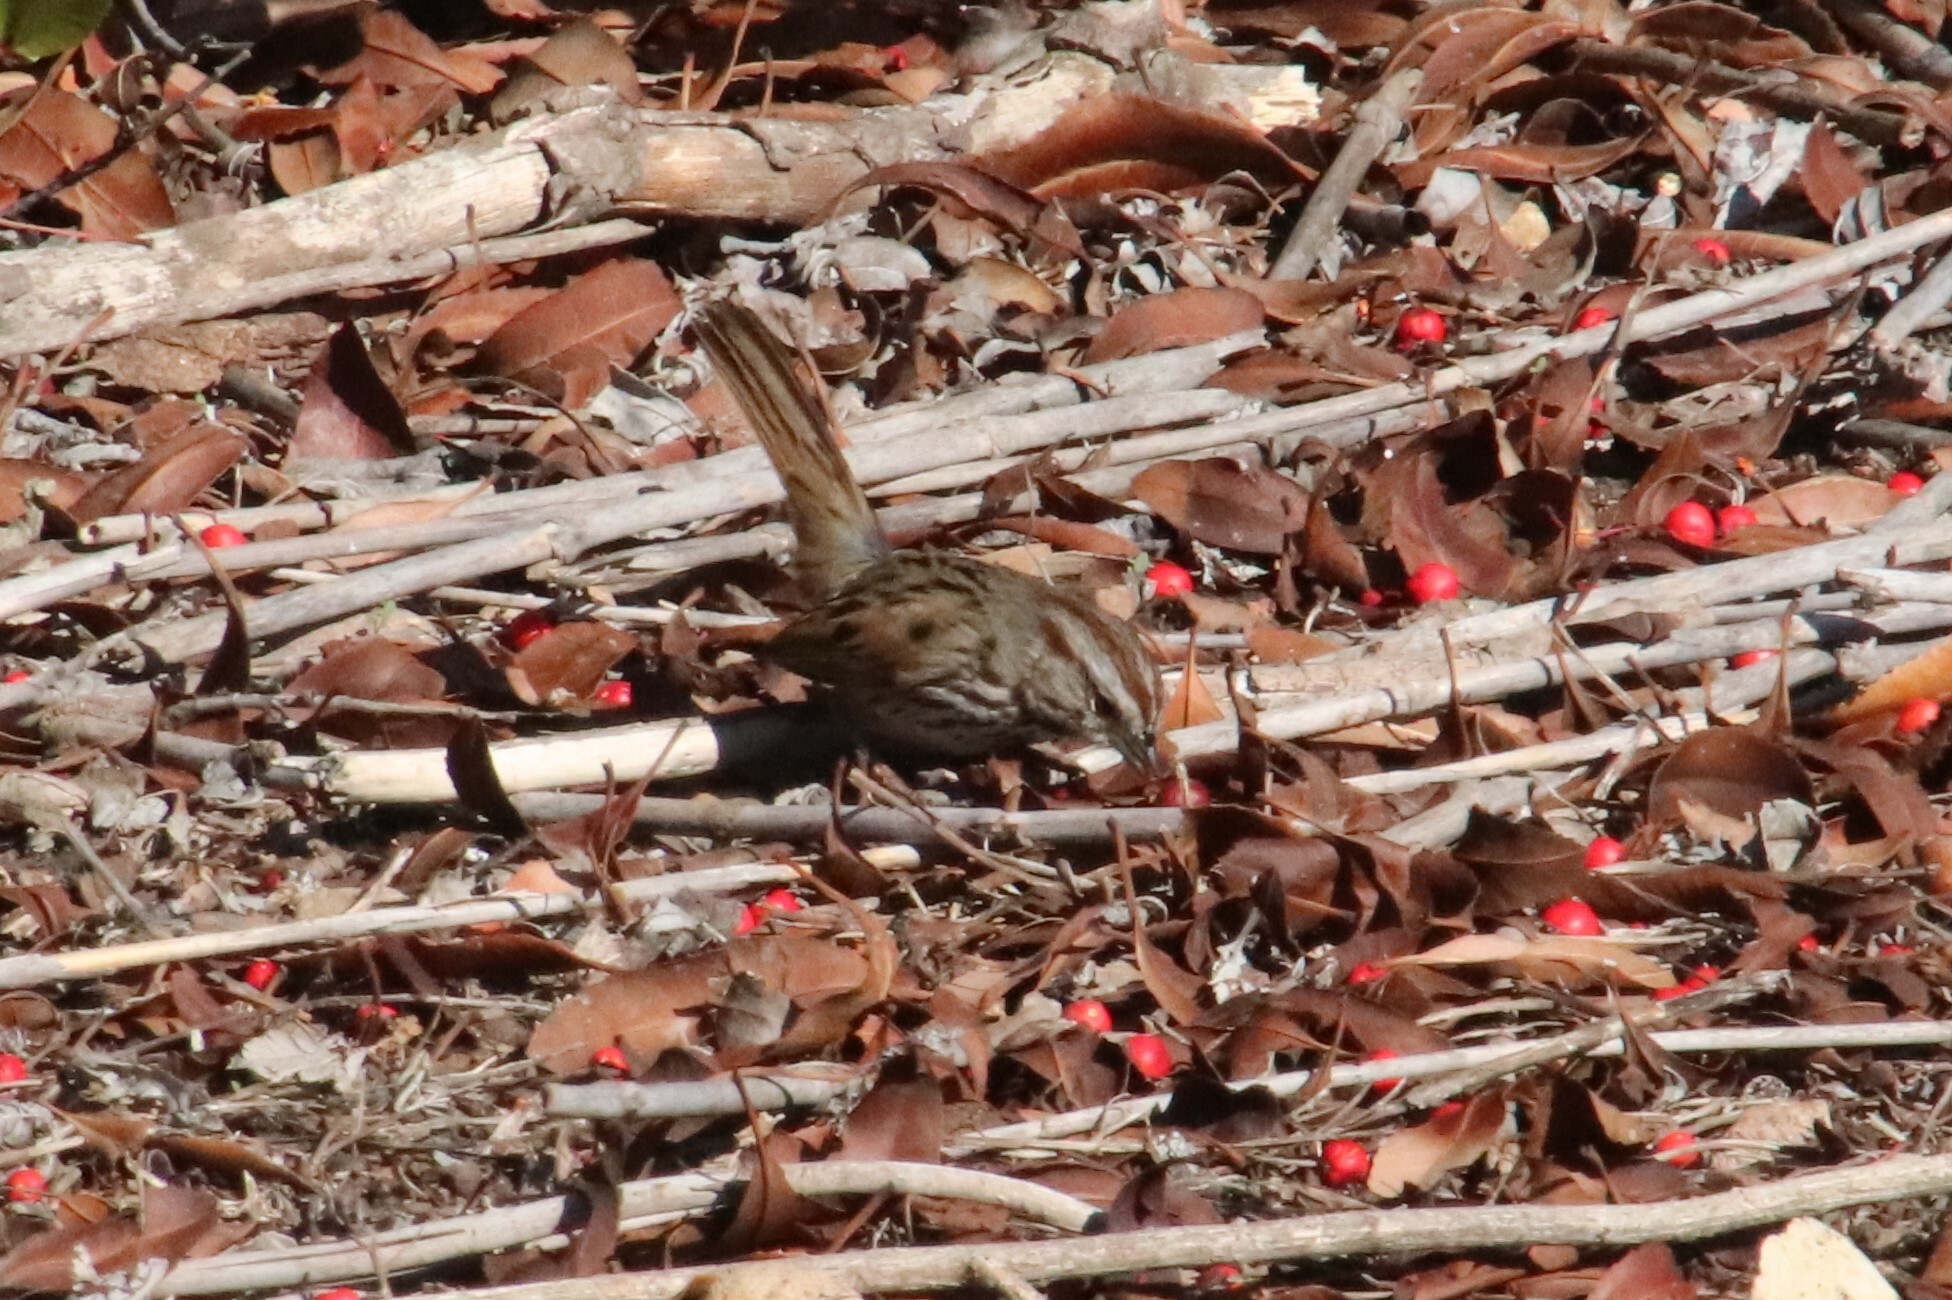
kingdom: Animalia
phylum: Chordata
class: Aves
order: Passeriformes
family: Passerellidae
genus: Melospiza
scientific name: Melospiza melodia
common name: Song sparrow
